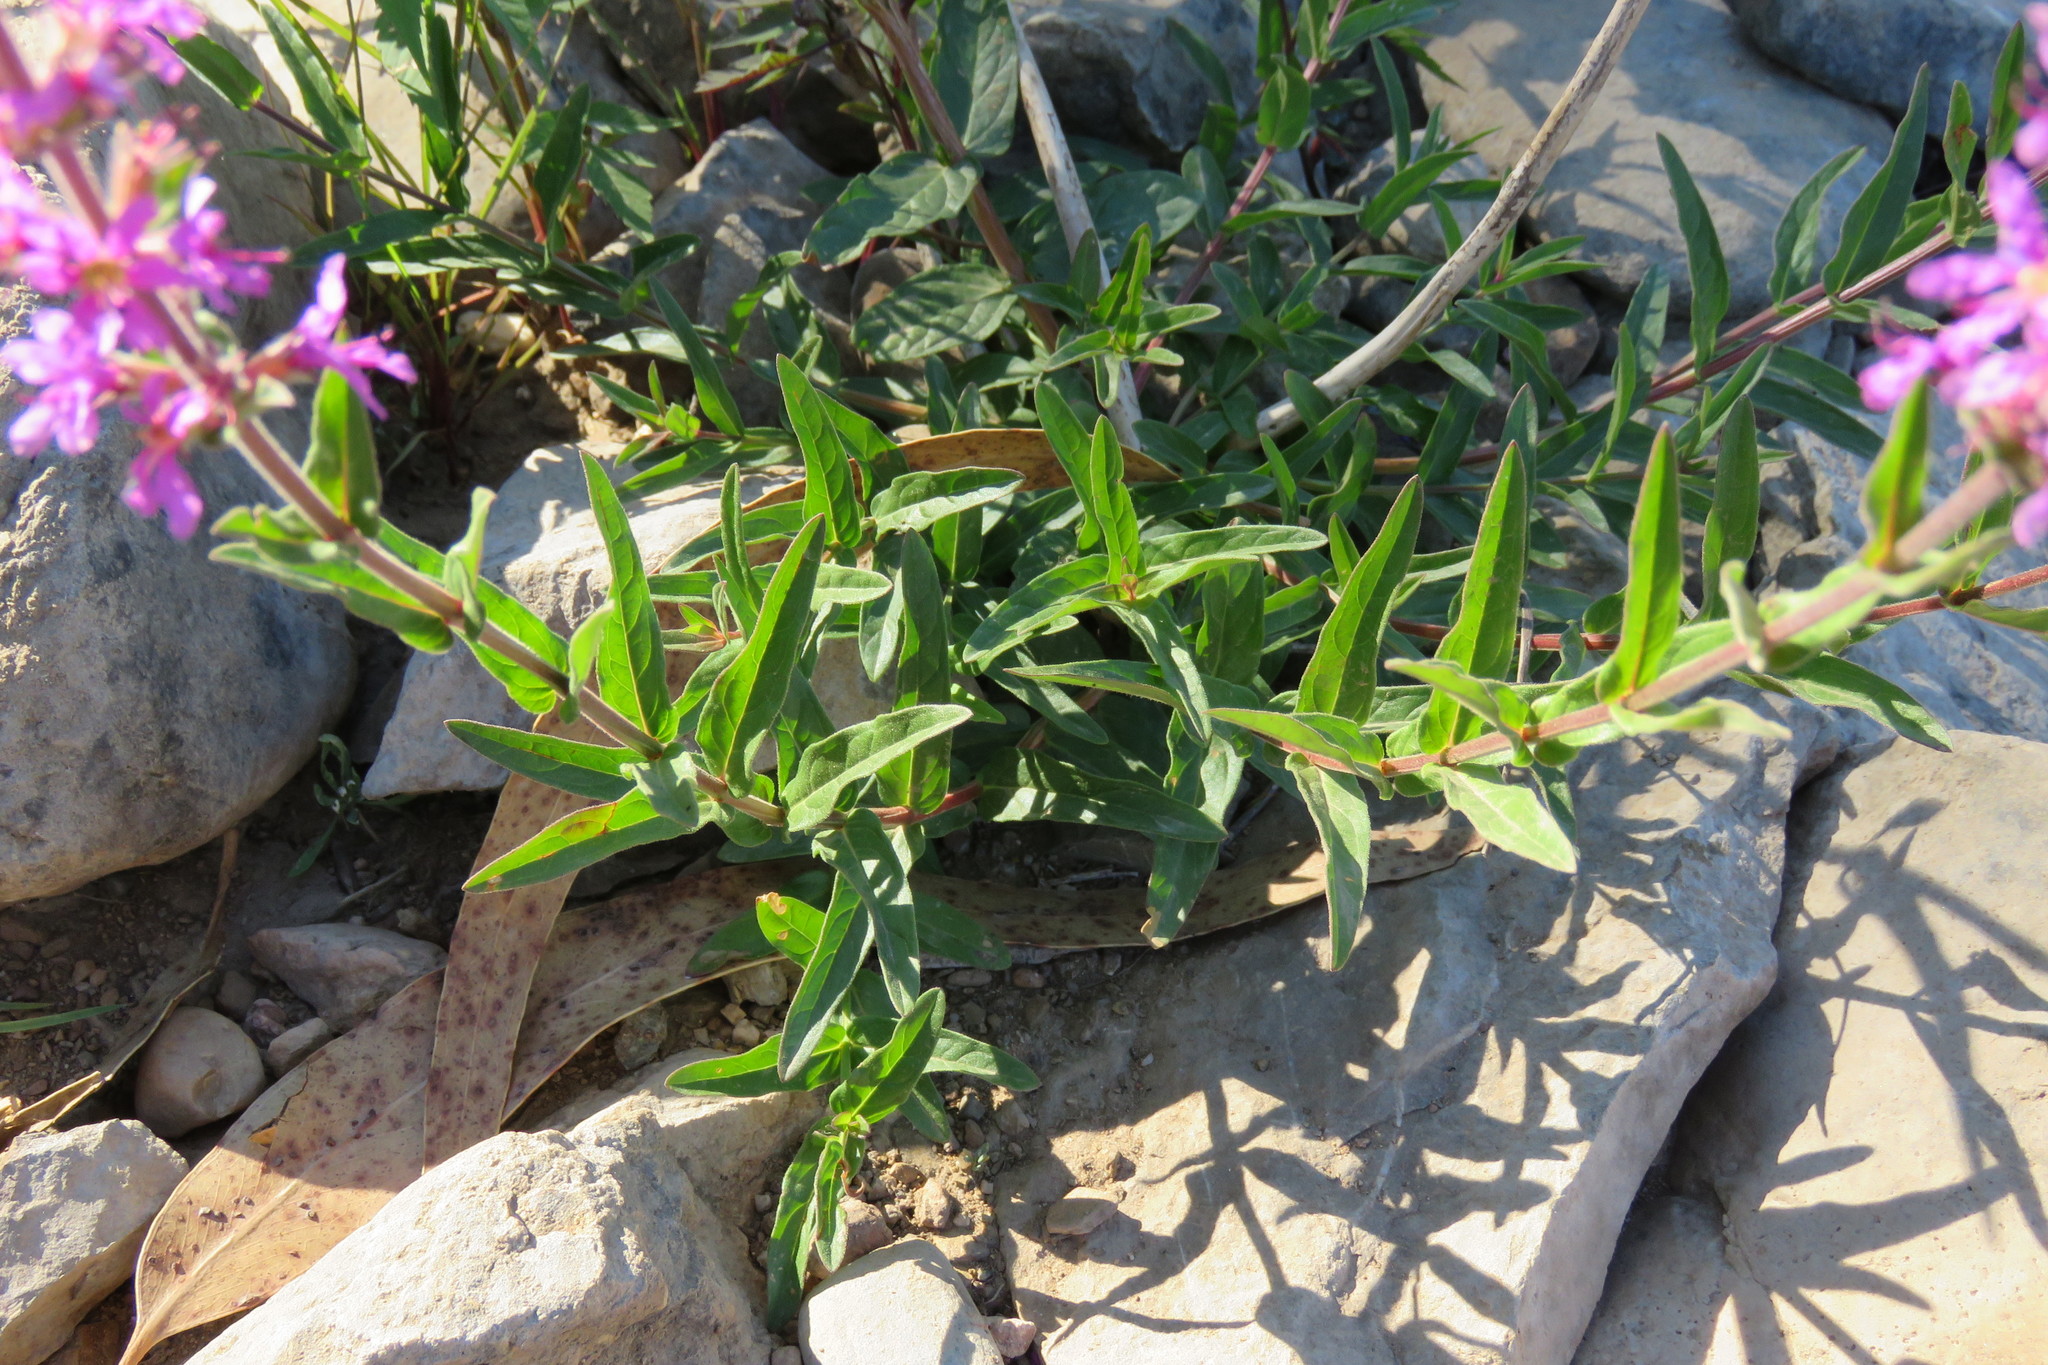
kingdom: Plantae
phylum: Tracheophyta
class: Magnoliopsida
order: Myrtales
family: Lythraceae
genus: Lythrum
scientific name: Lythrum salicaria
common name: Purple loosestrife
